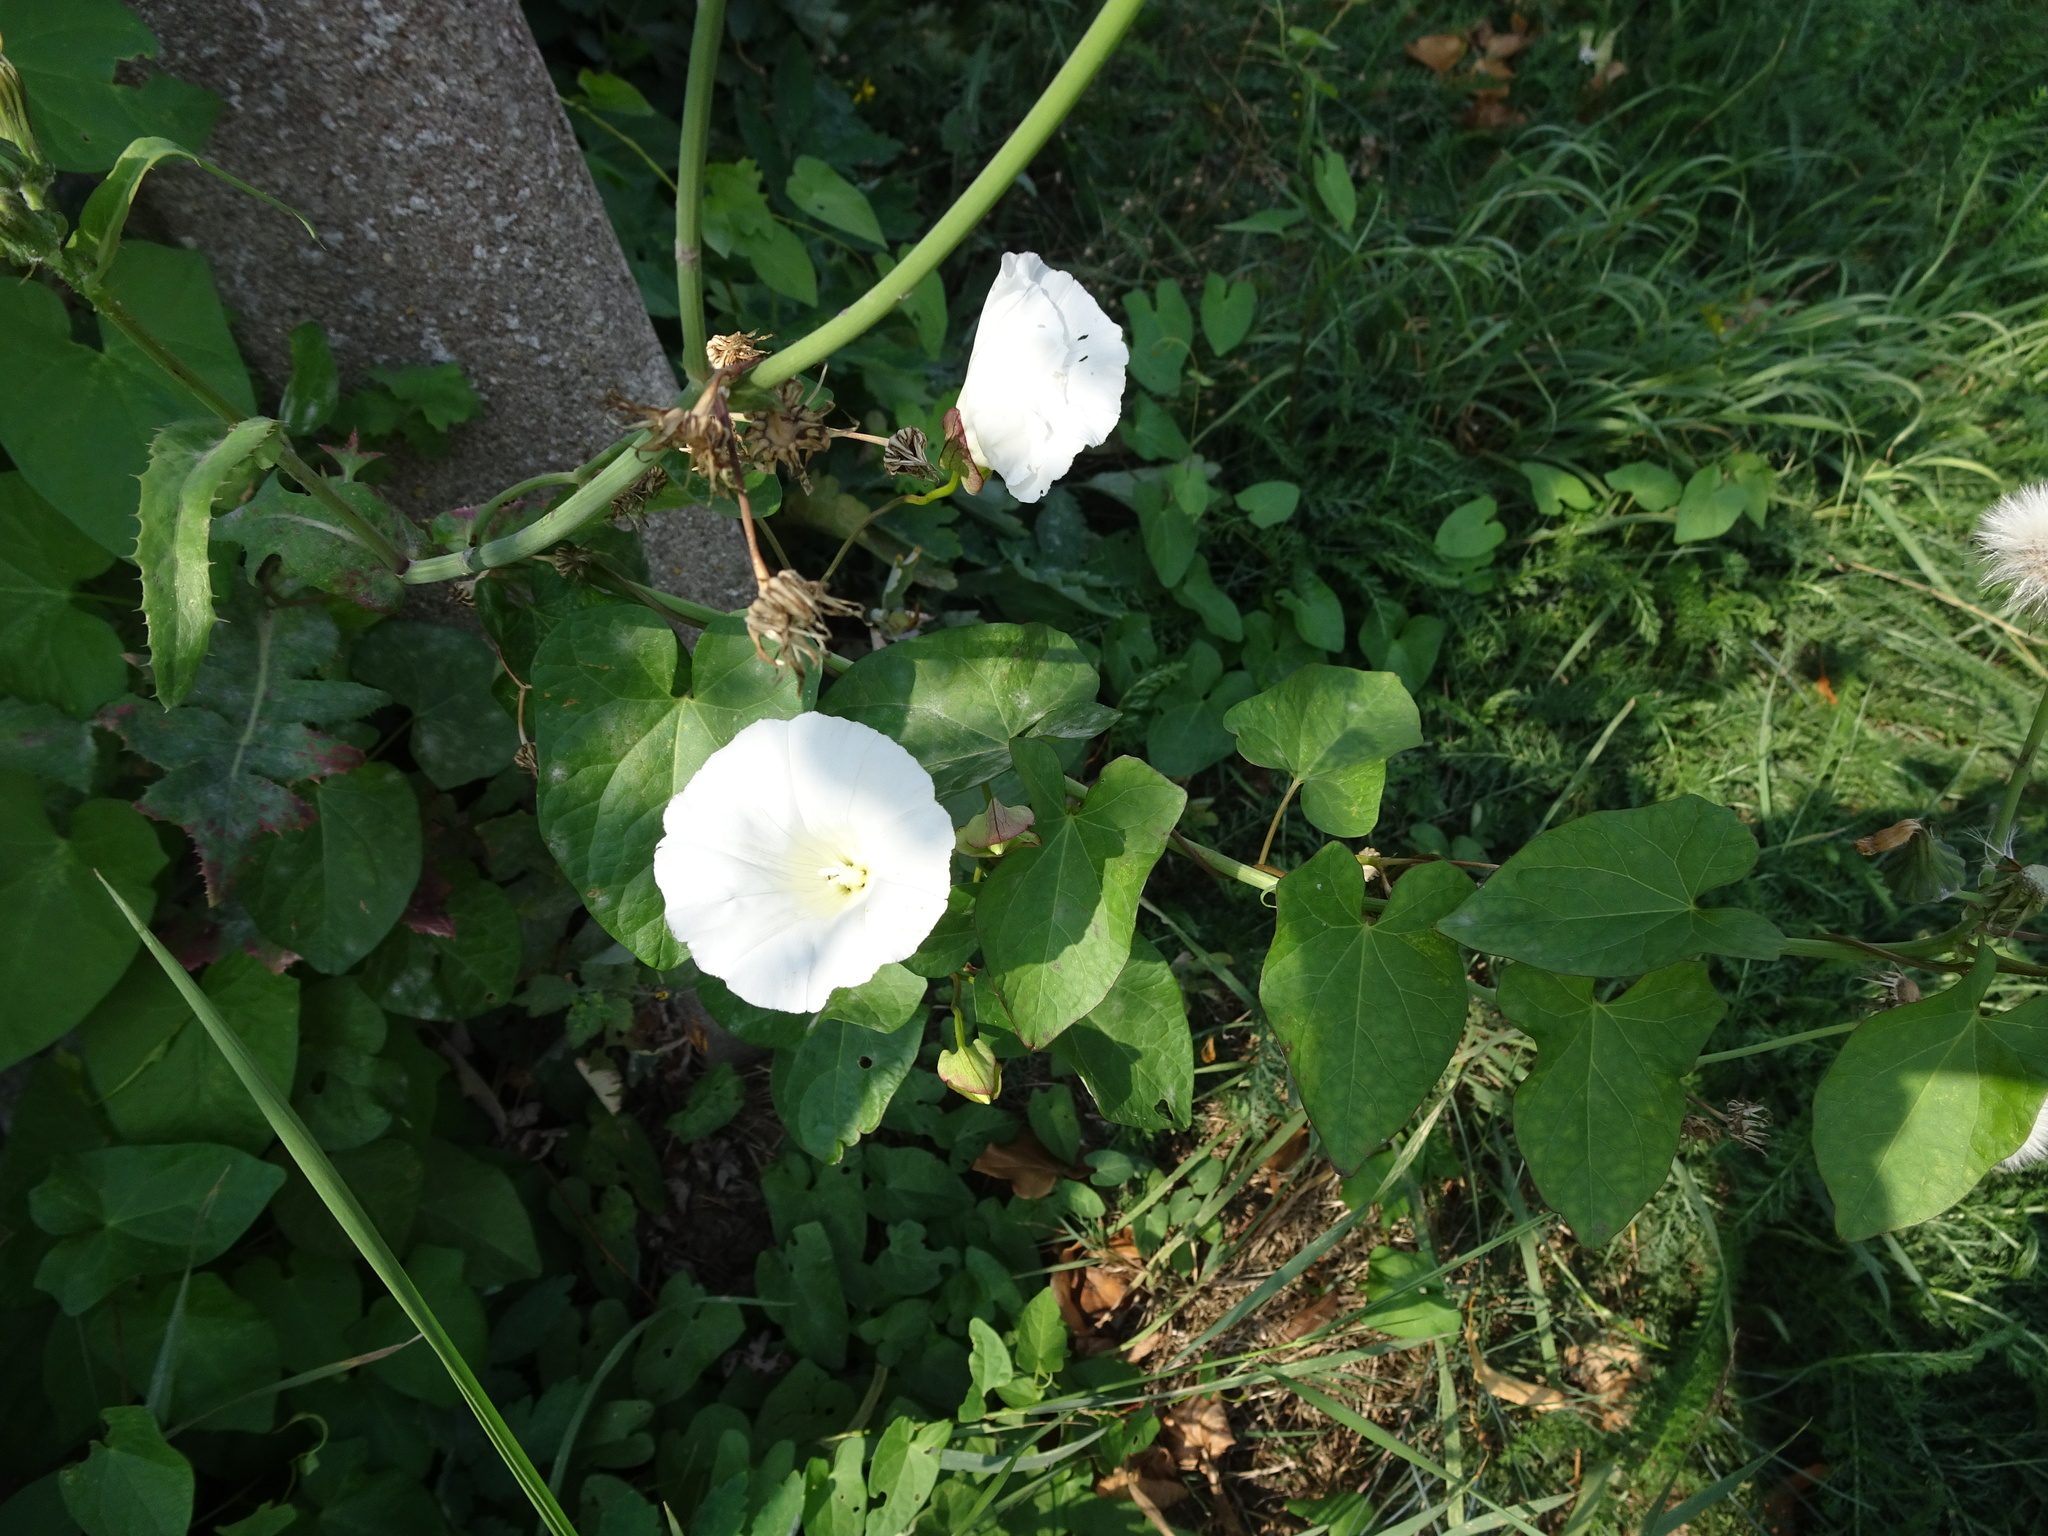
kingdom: Plantae
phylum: Tracheophyta
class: Magnoliopsida
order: Solanales
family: Convolvulaceae
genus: Calystegia
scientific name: Calystegia sepium
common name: Hedge bindweed
